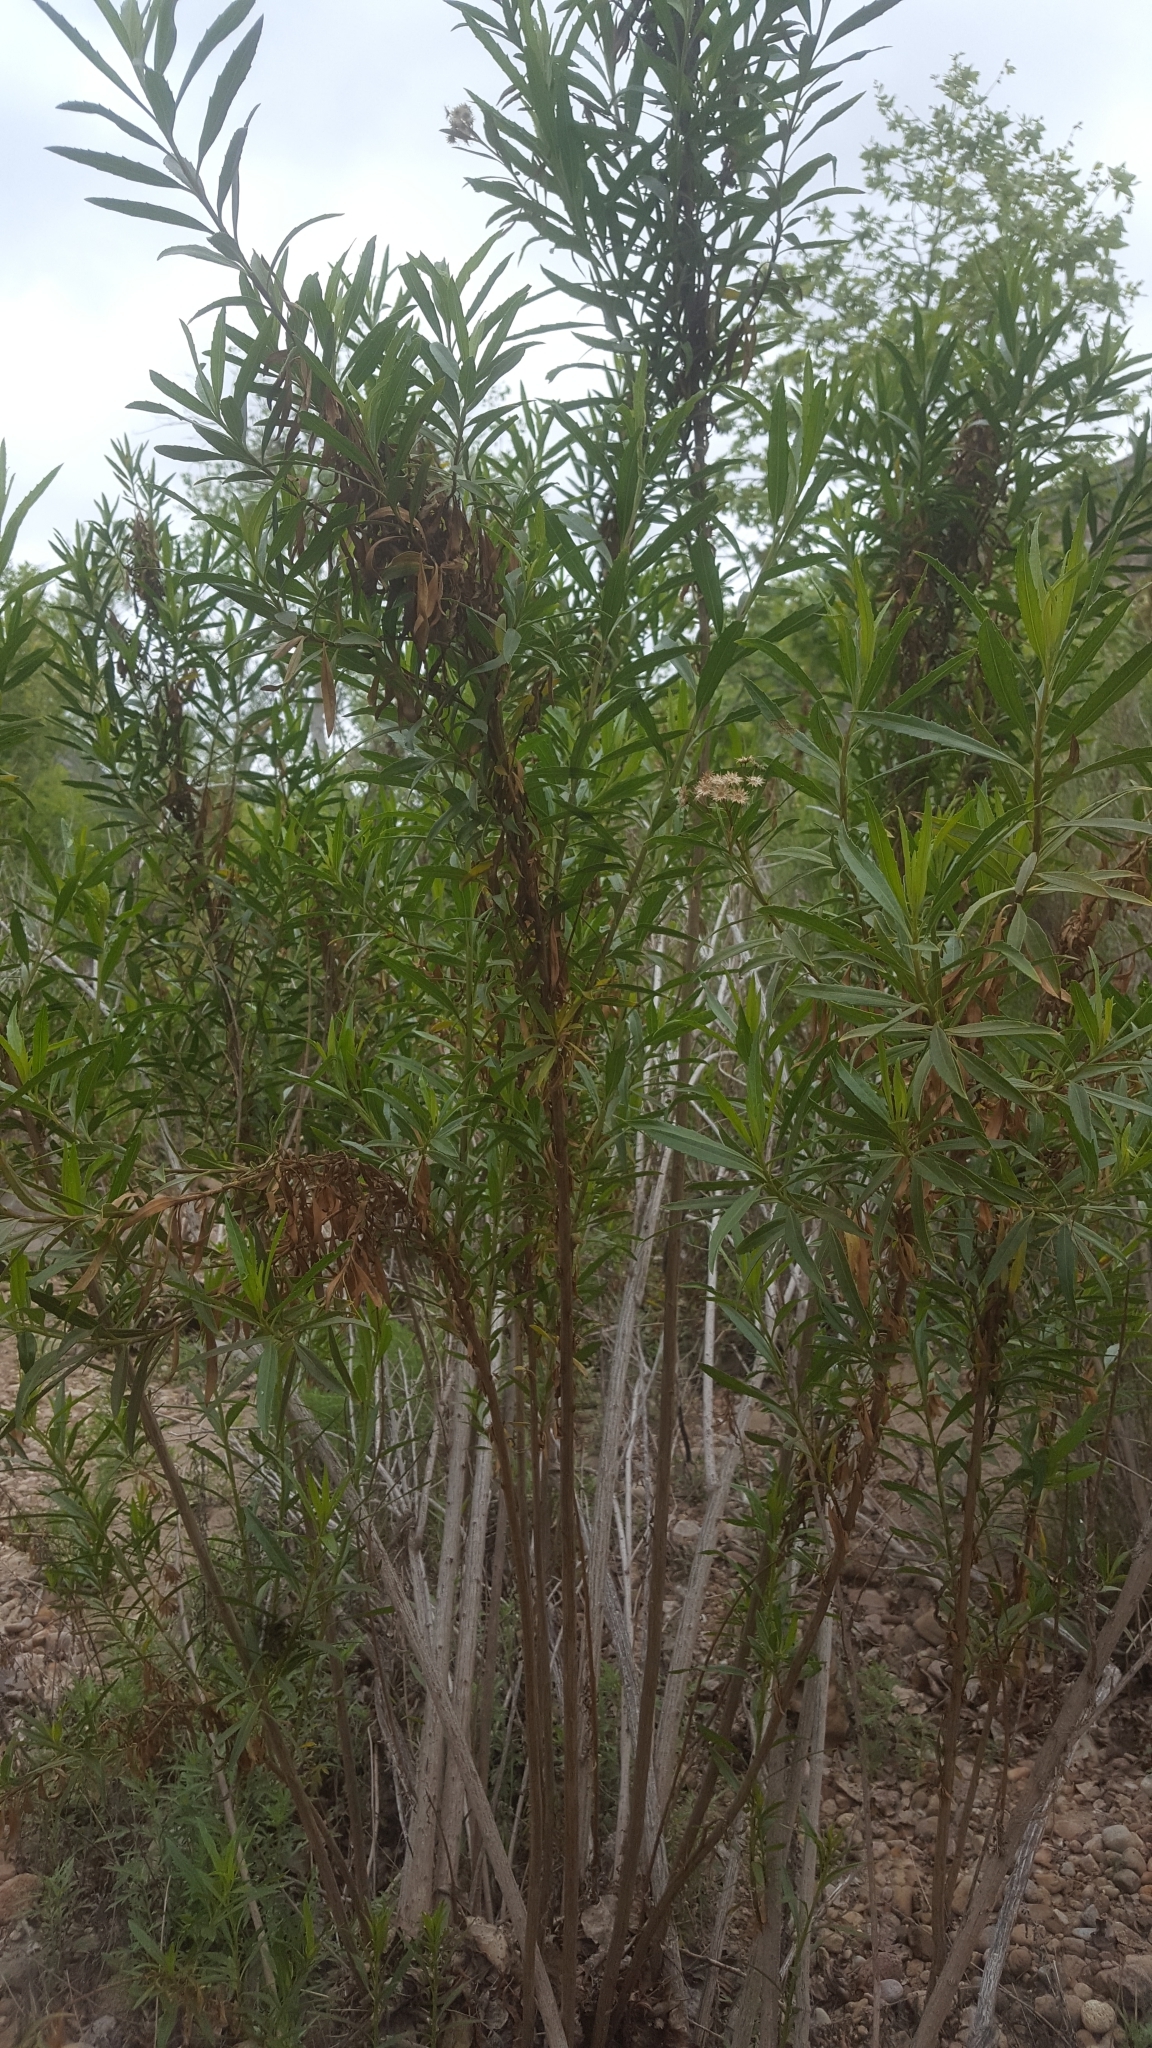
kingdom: Plantae
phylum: Tracheophyta
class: Magnoliopsida
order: Asterales
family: Asteraceae
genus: Baccharis
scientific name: Baccharis salicifolia
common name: Sticky baccharis
